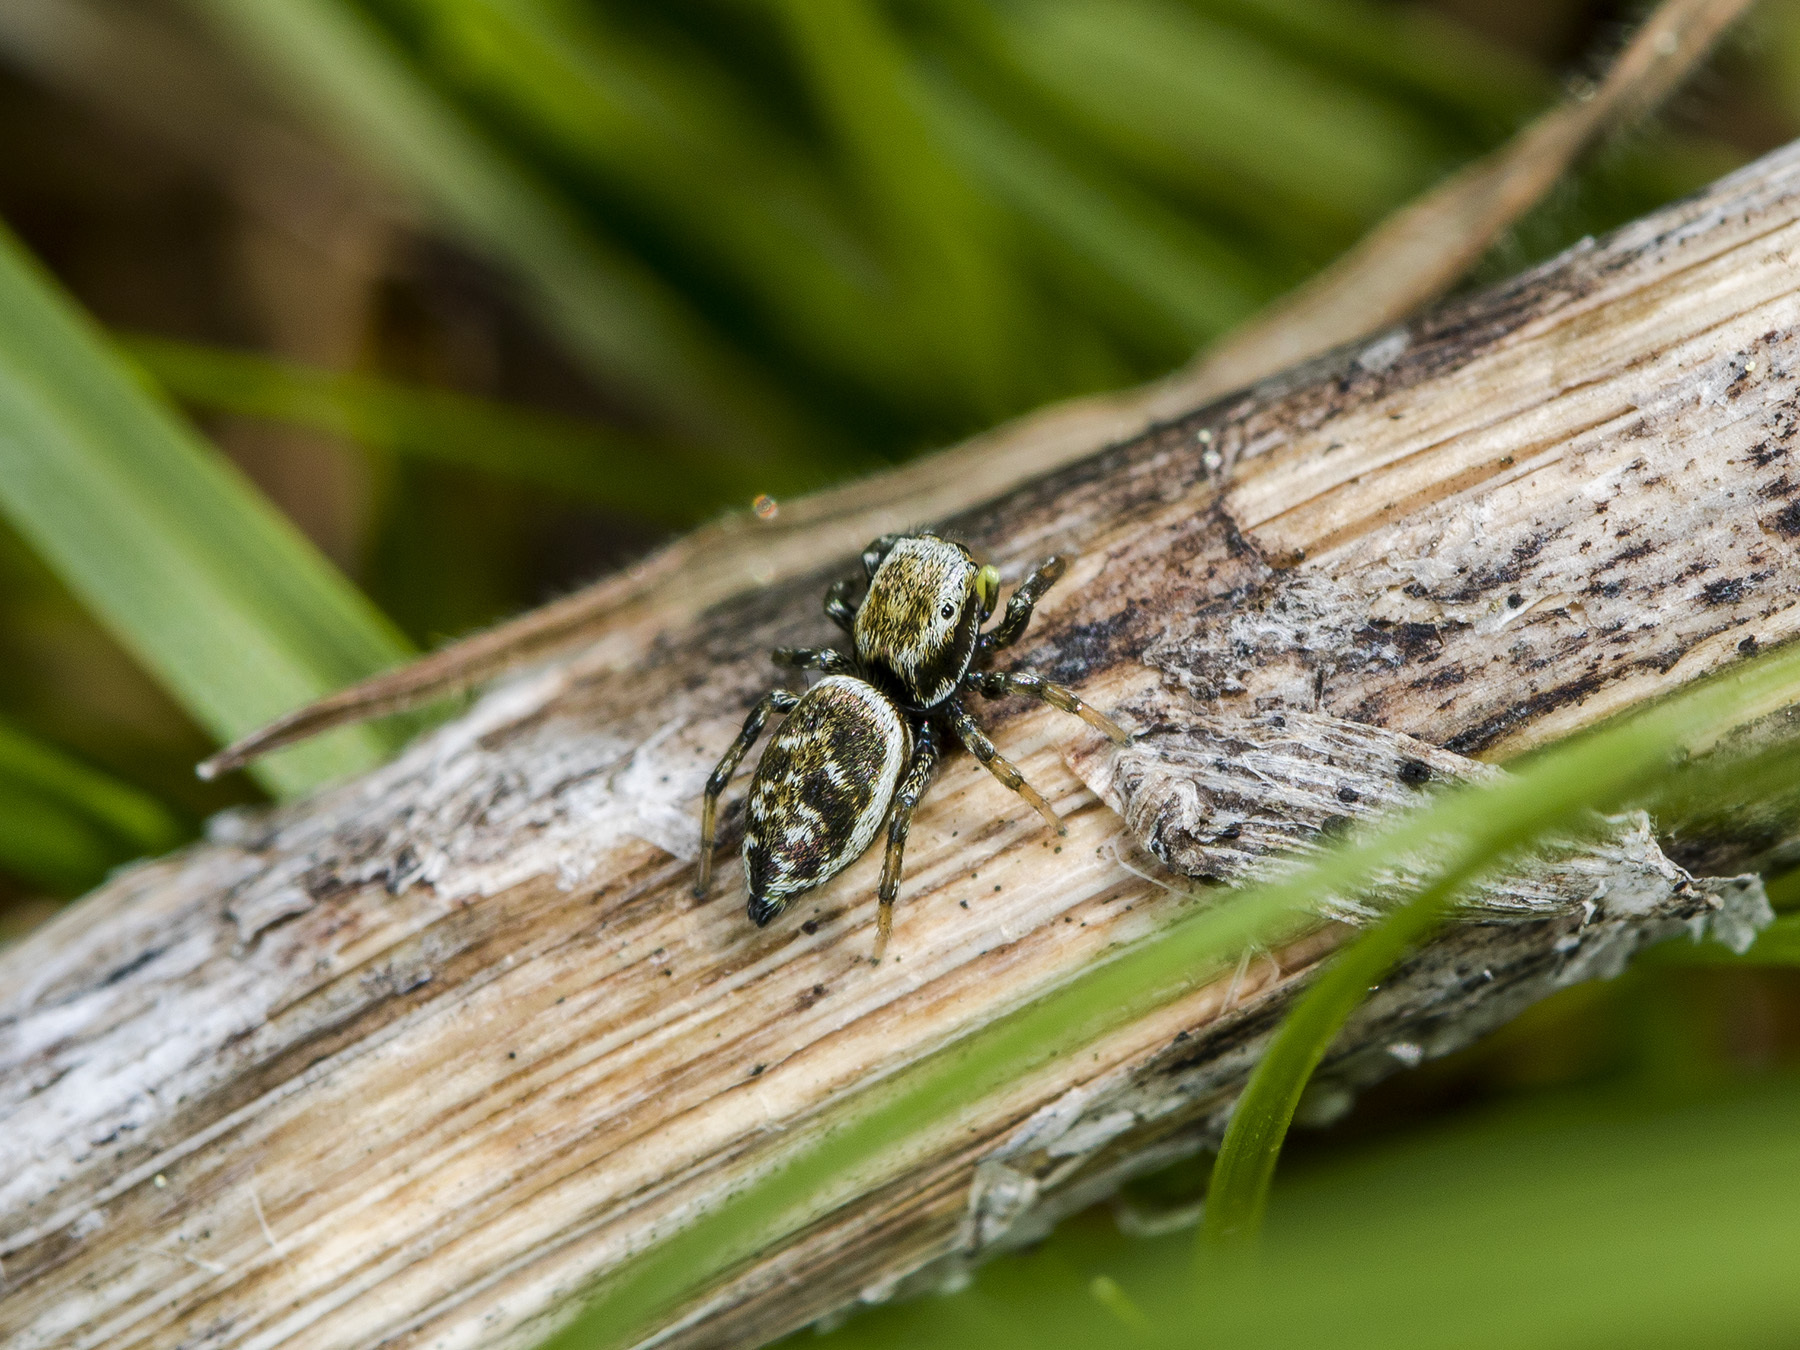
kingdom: Animalia
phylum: Arthropoda
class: Arachnida
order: Araneae
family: Salticidae
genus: Heliophanus
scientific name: Heliophanus potanini
